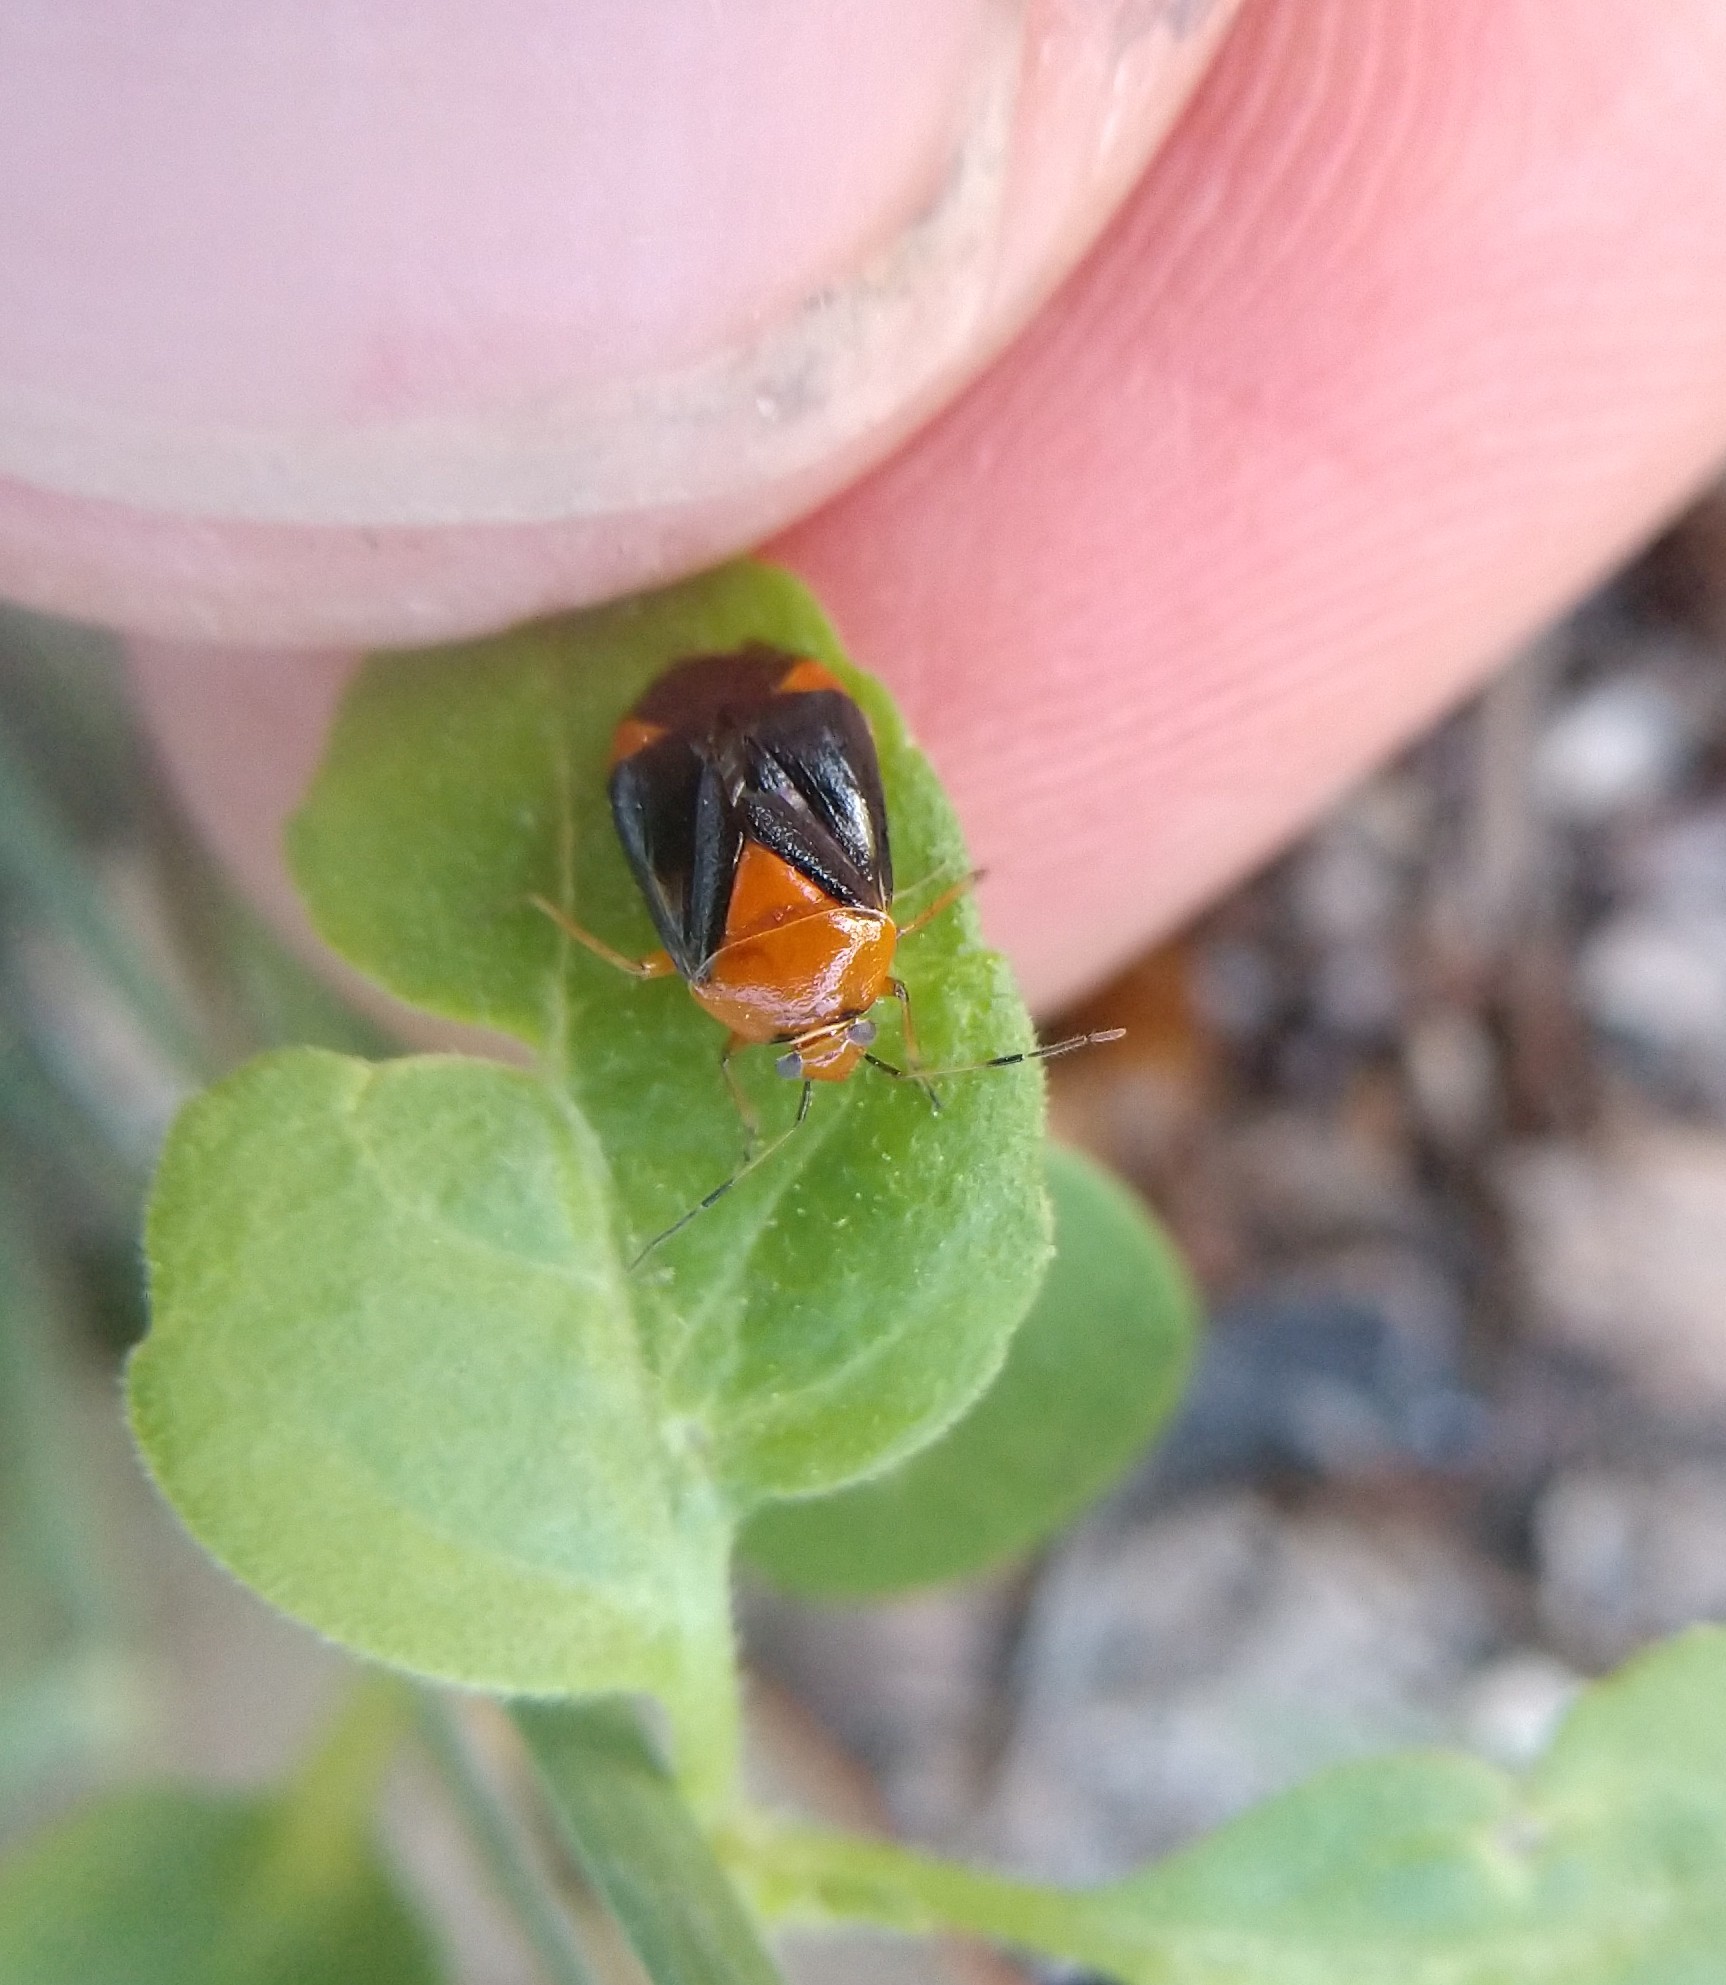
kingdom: Animalia
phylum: Arthropoda
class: Insecta
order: Hemiptera
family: Miridae
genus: Neocapsus
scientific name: Neocapsus cuneatus
